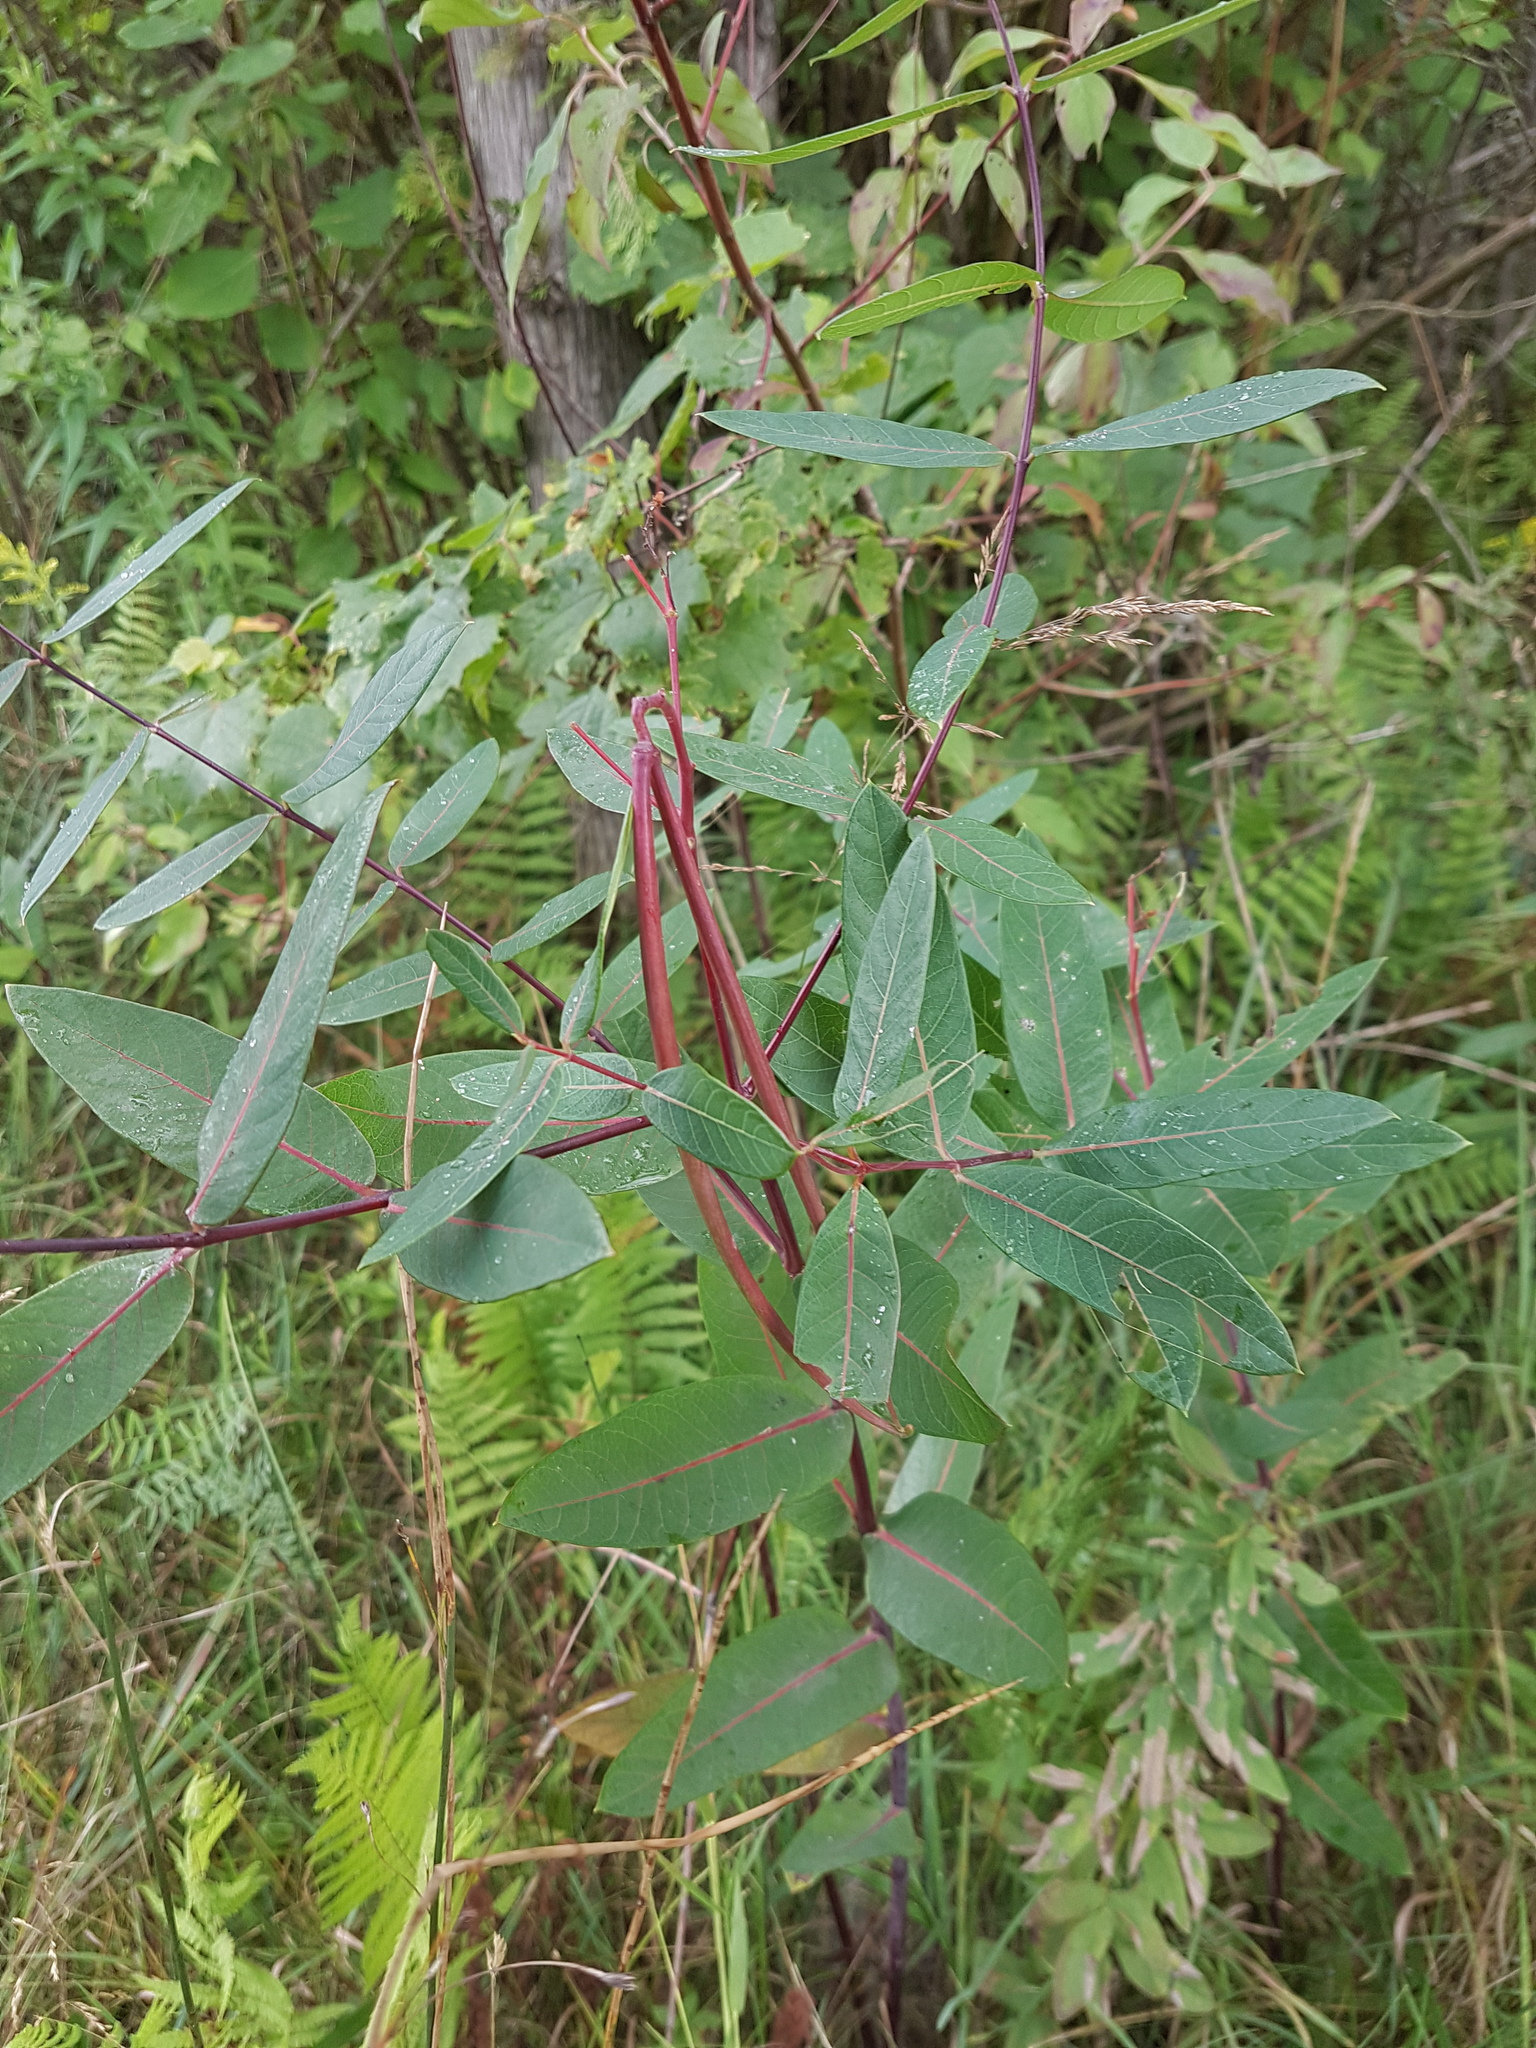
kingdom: Plantae
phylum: Tracheophyta
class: Magnoliopsida
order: Gentianales
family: Apocynaceae
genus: Apocynum
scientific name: Apocynum cannabinum
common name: Hemp dogbane
